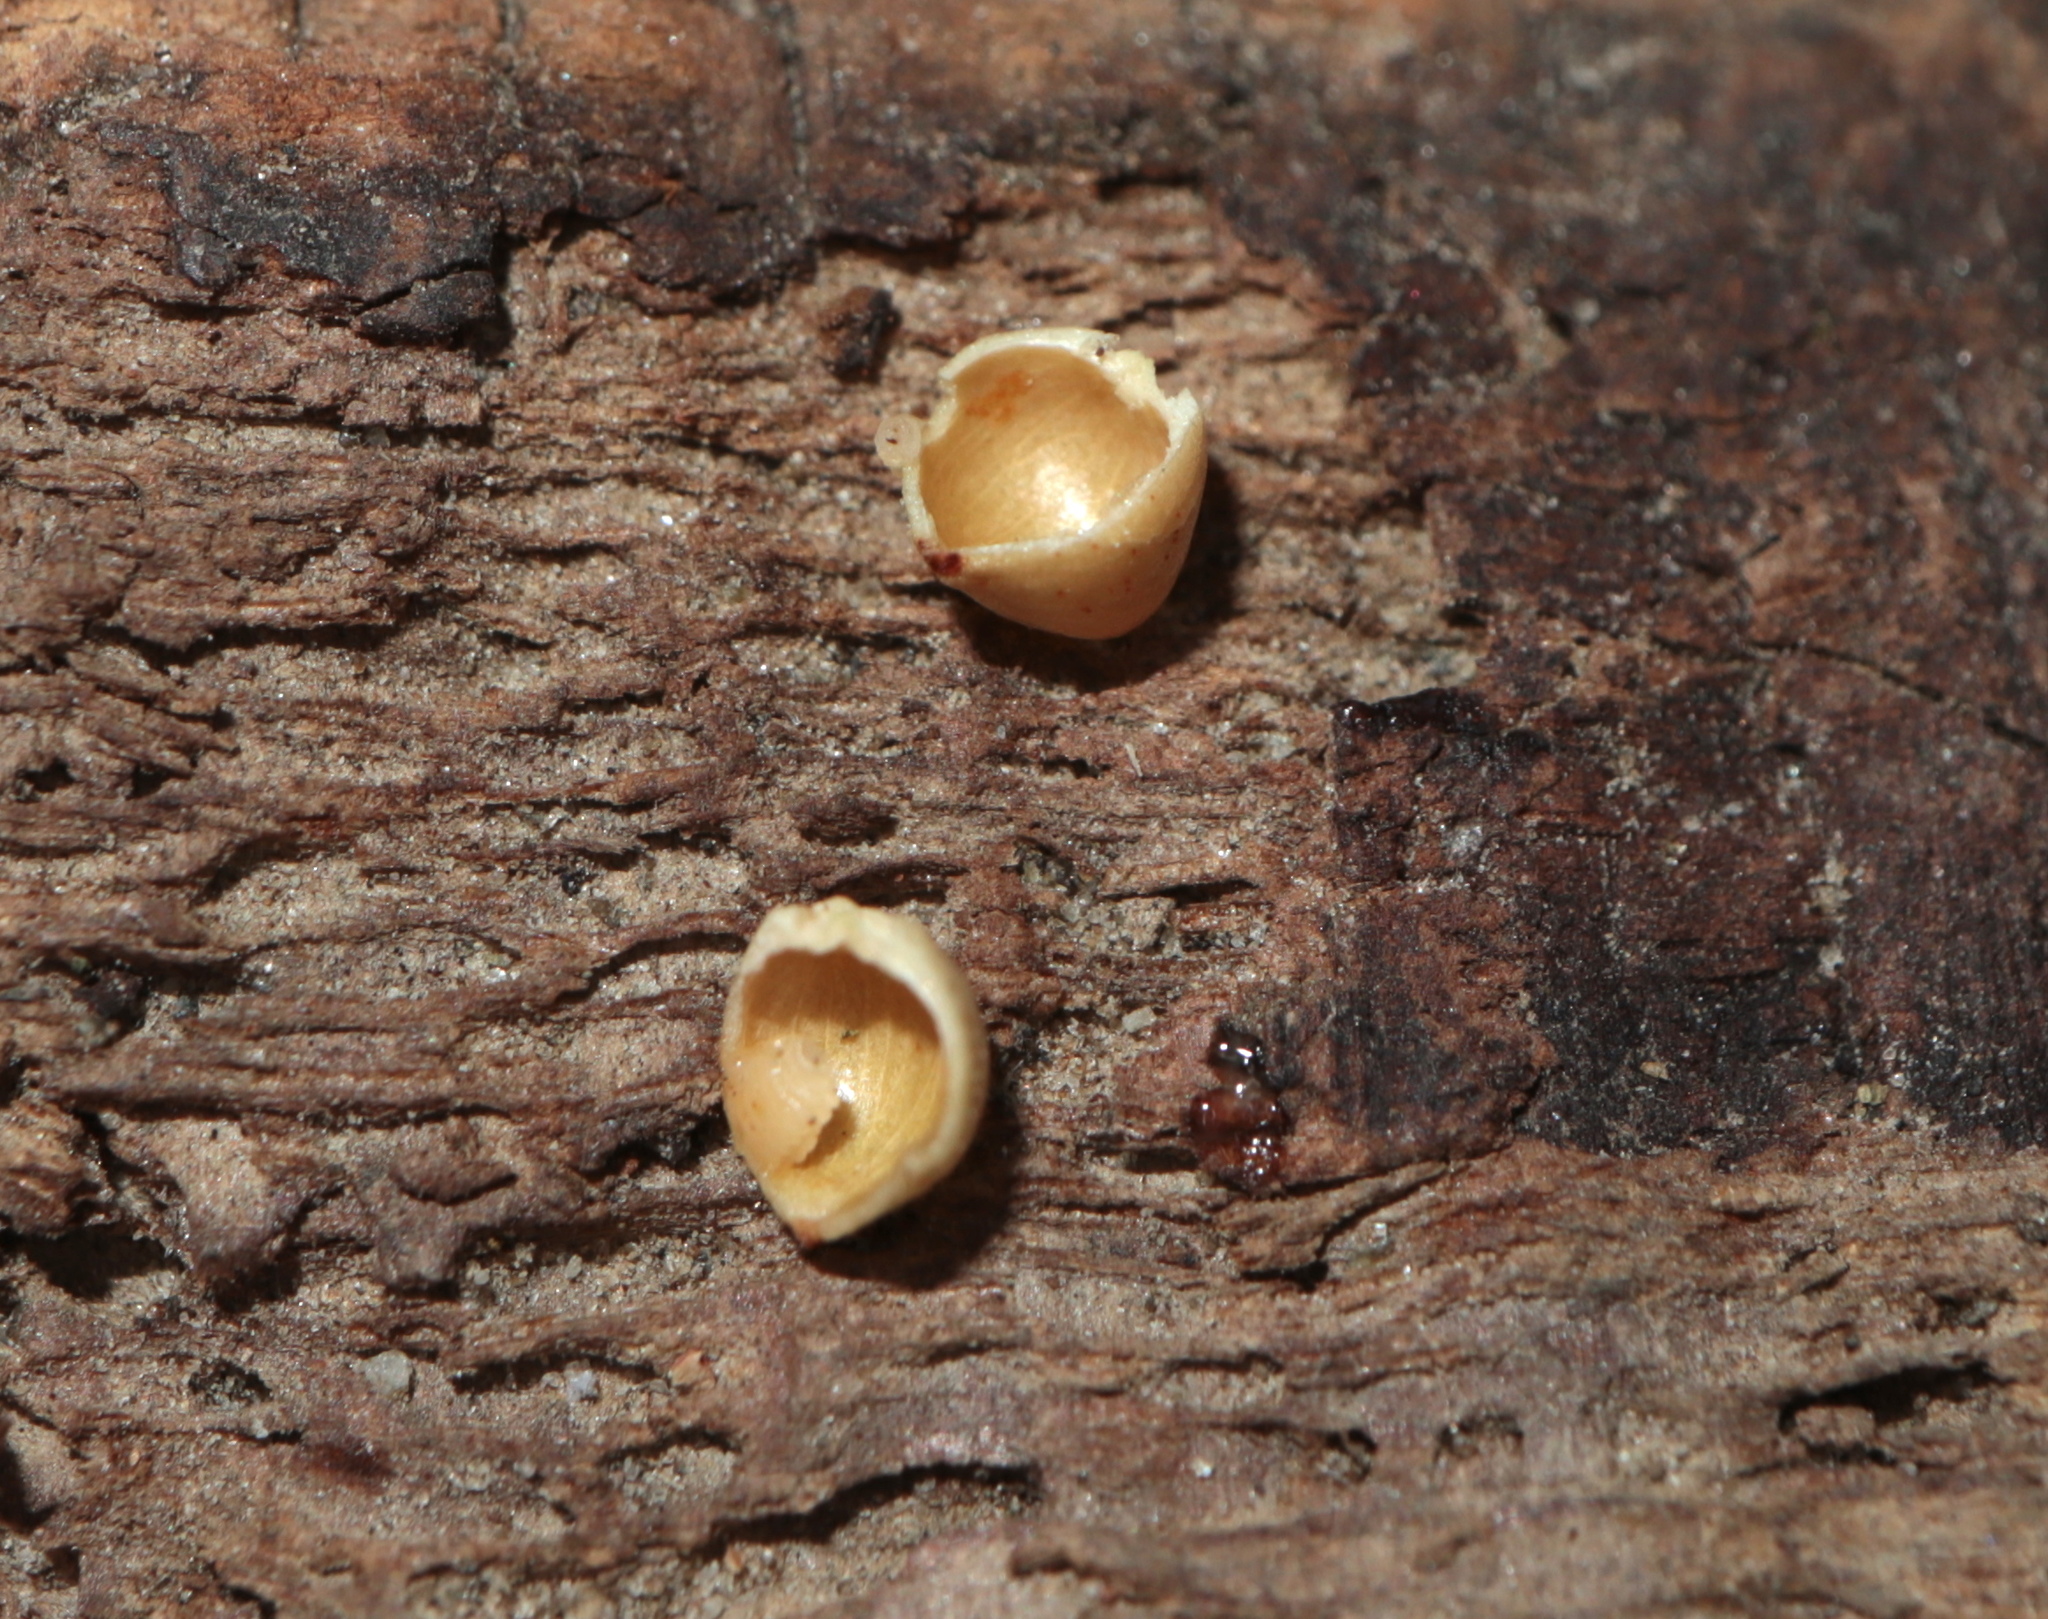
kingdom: Animalia
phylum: Arthropoda
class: Insecta
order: Diptera
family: Cecidomyiidae
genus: Caryomyia
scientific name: Caryomyia caryae
